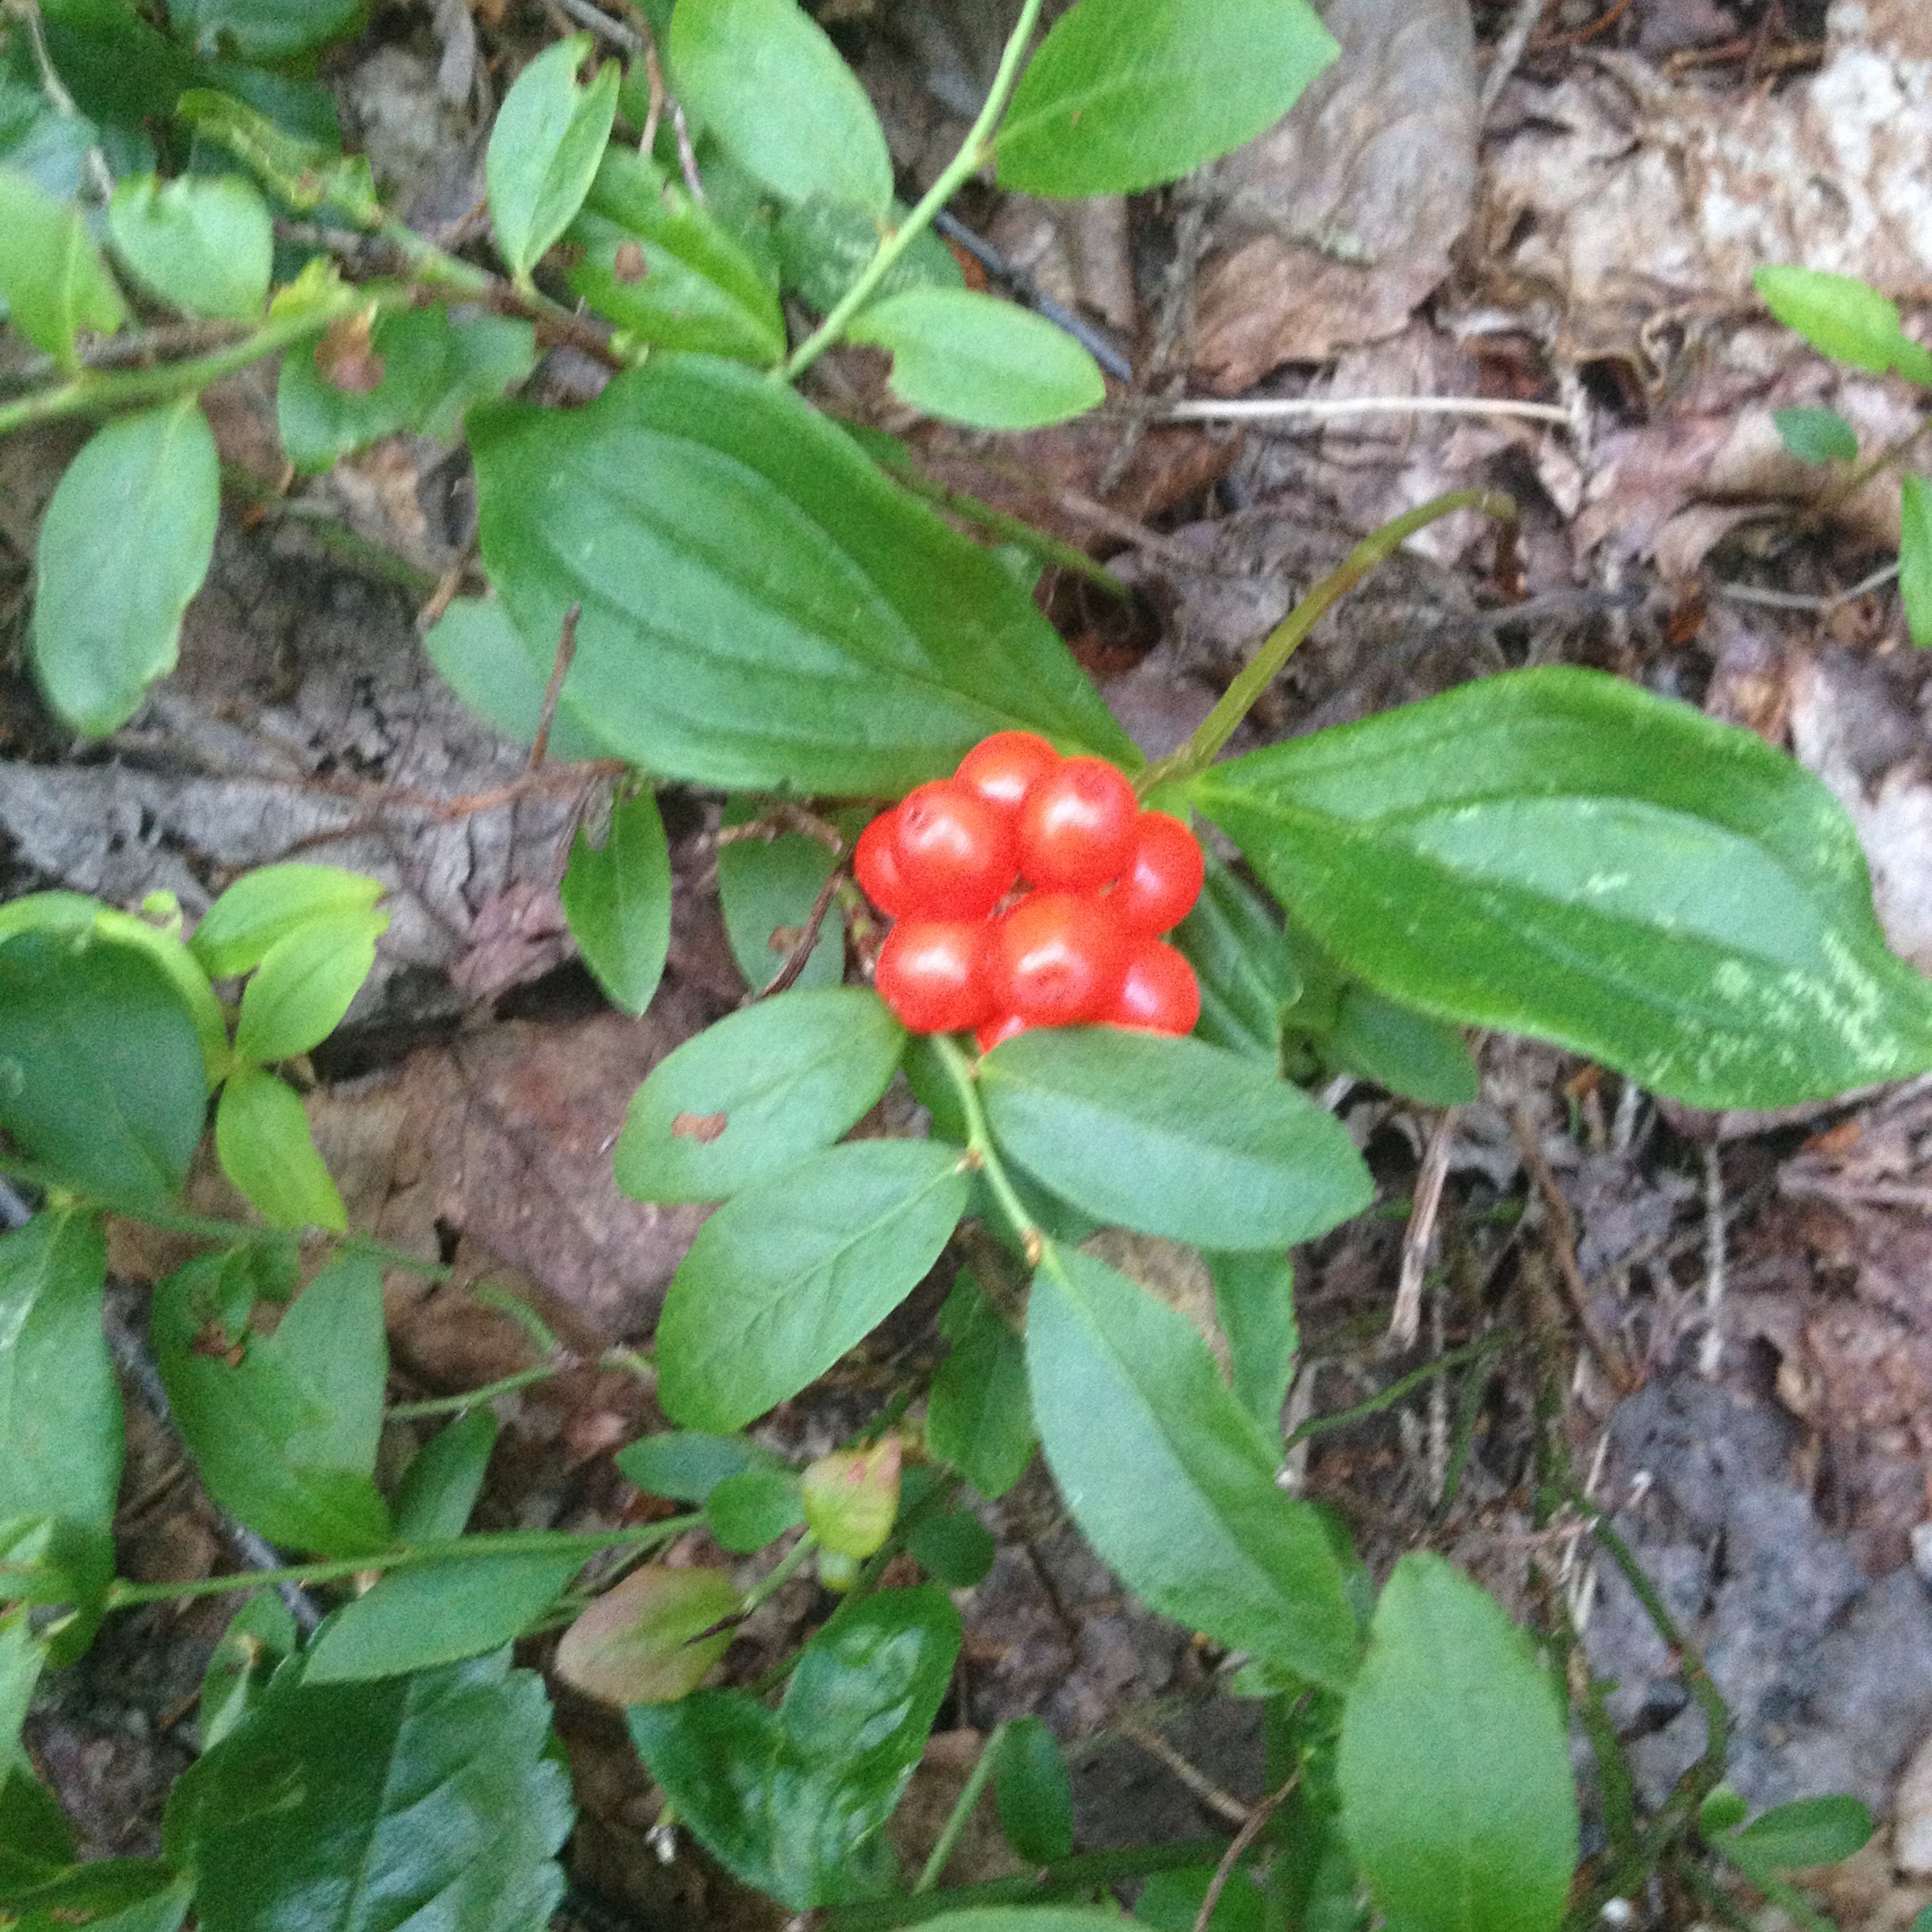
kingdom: Plantae
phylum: Tracheophyta
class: Magnoliopsida
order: Cornales
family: Cornaceae
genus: Cornus
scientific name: Cornus canadensis
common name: Creeping dogwood
